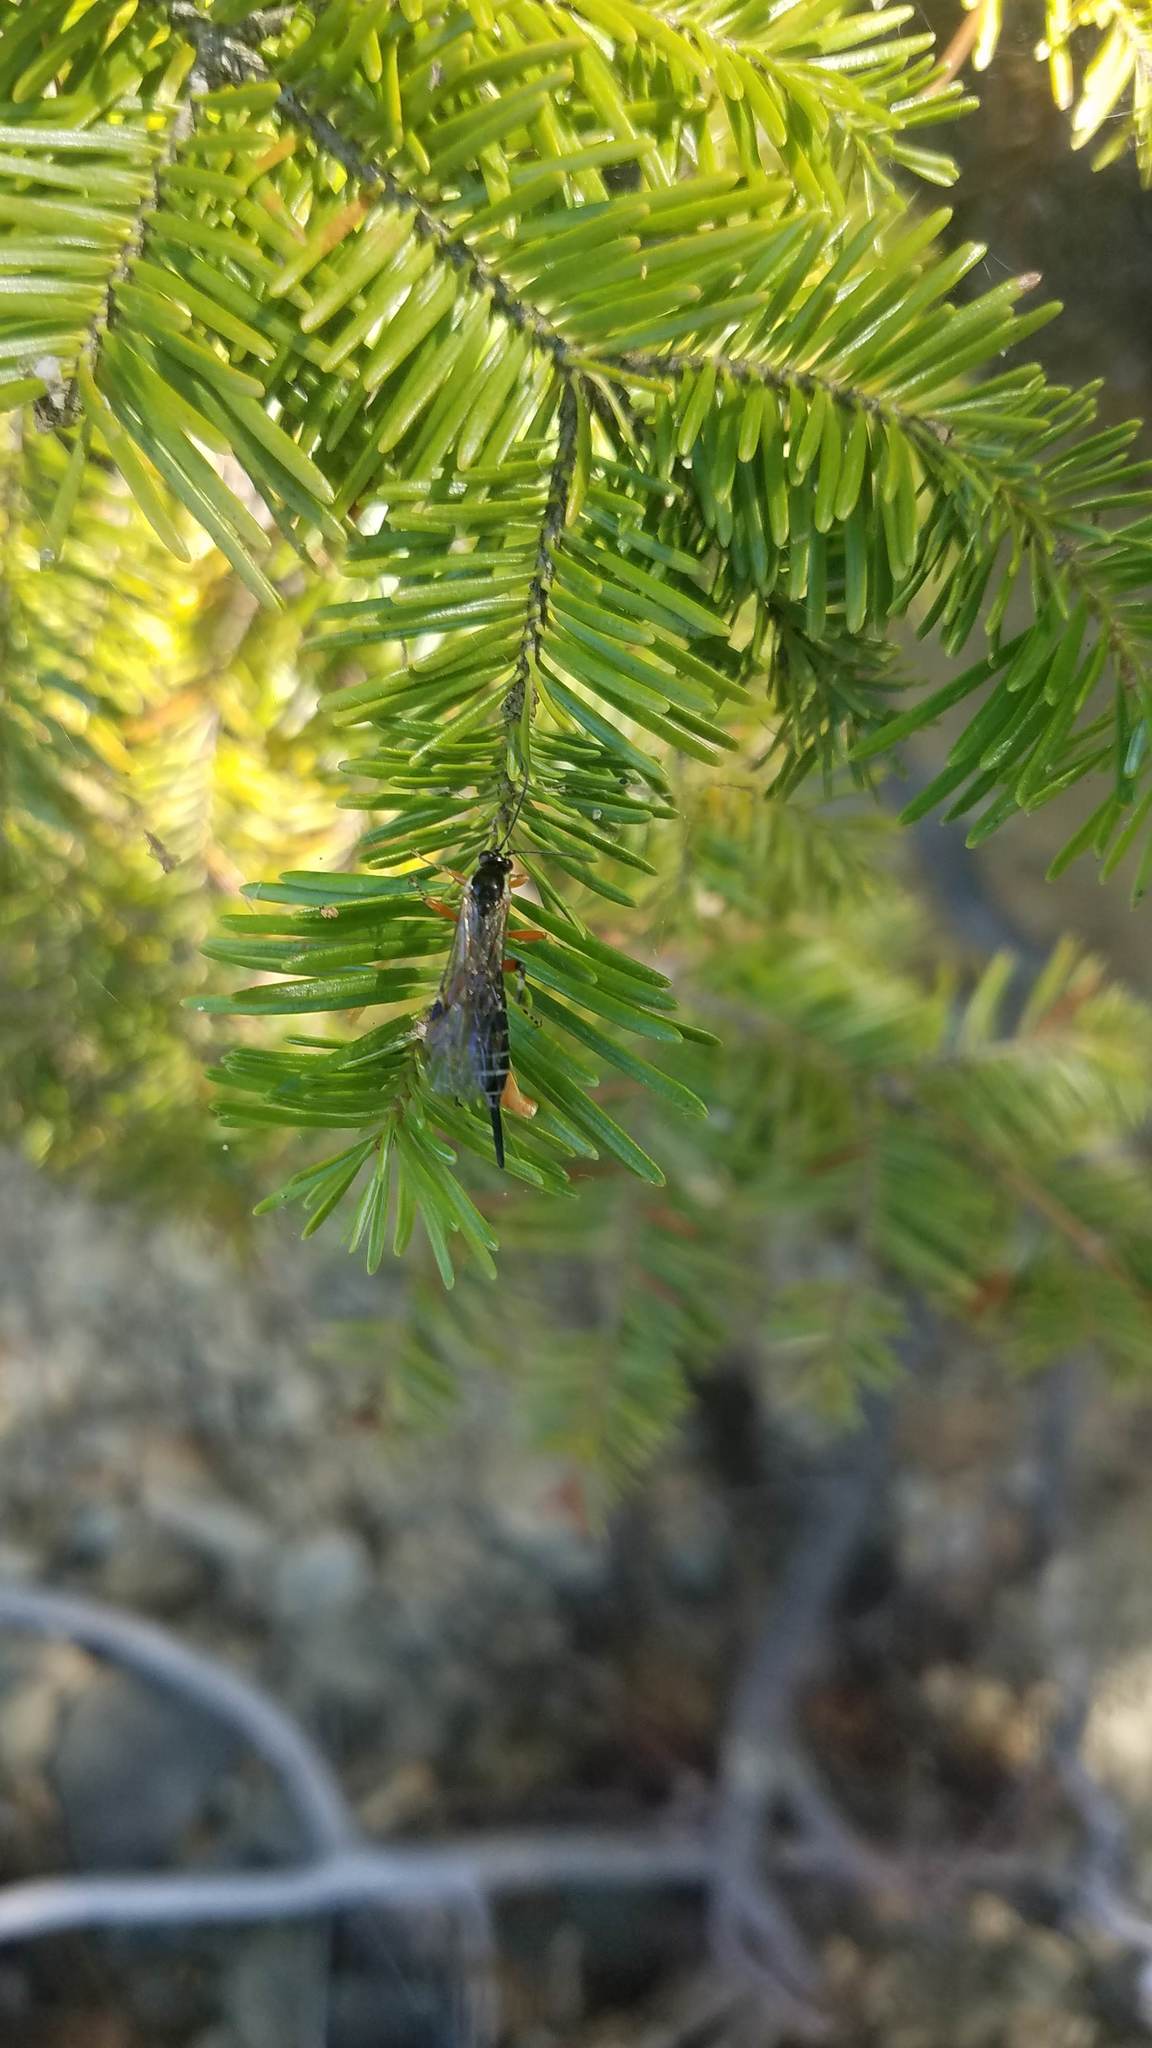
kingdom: Animalia
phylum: Arthropoda
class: Insecta
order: Hymenoptera
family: Ichneumonidae
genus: Itoplectis
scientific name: Itoplectis conquisitor
